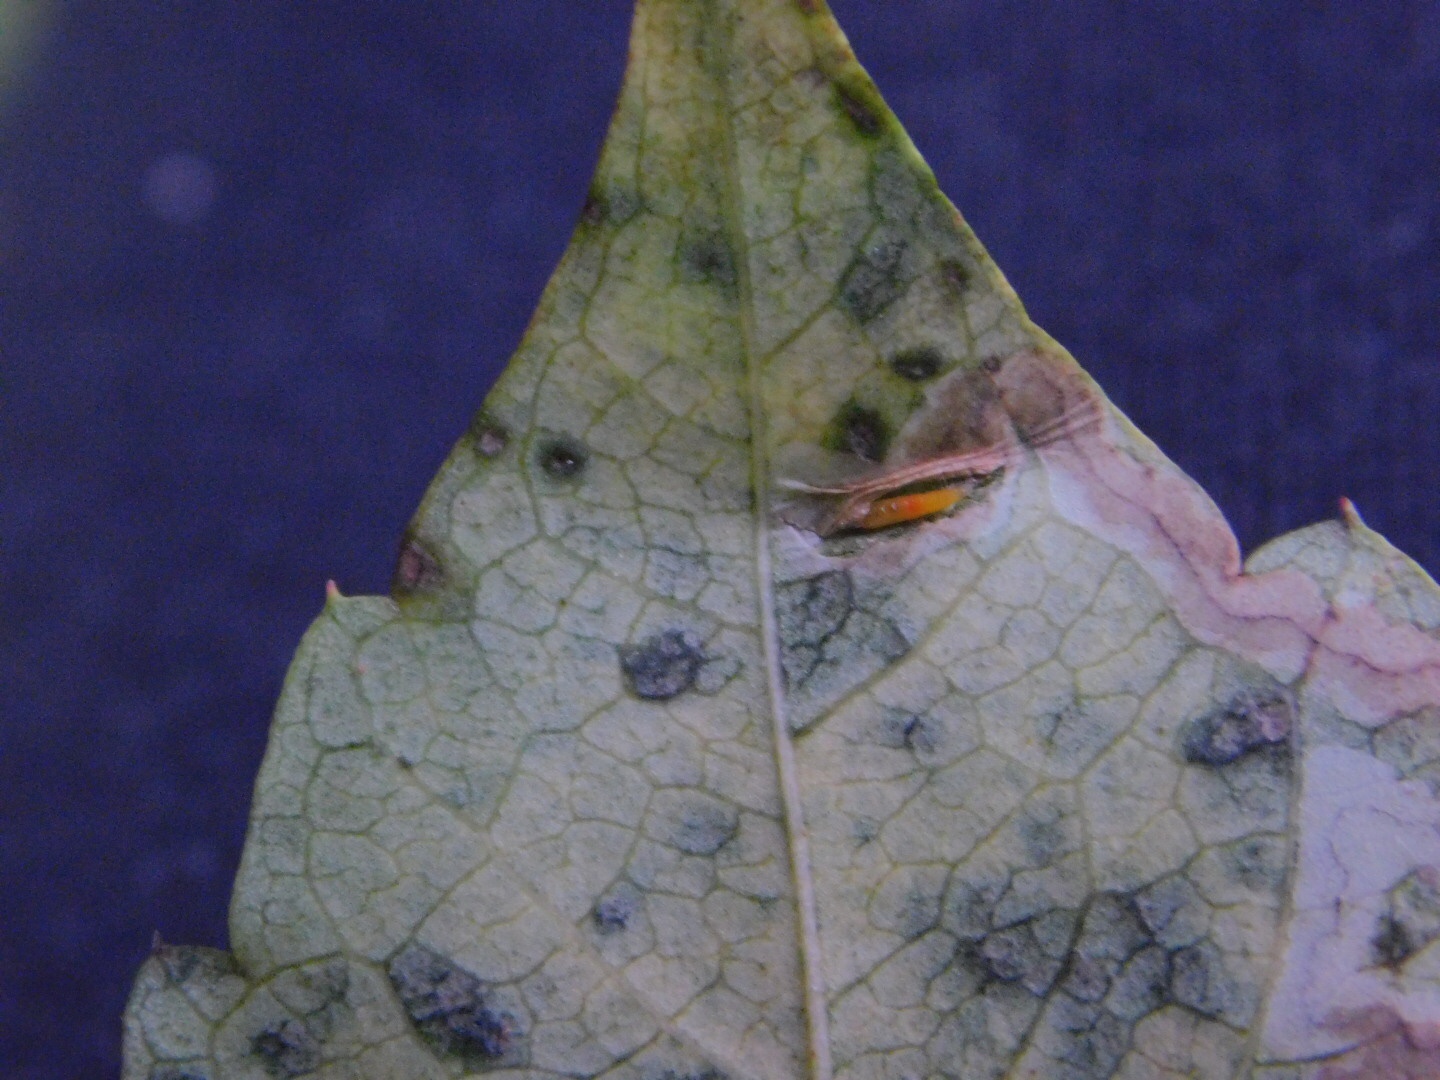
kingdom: Animalia
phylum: Arthropoda
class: Insecta
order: Lepidoptera
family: Gracillariidae
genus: Phyllocnistis
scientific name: Phyllocnistis ampelopsiella
